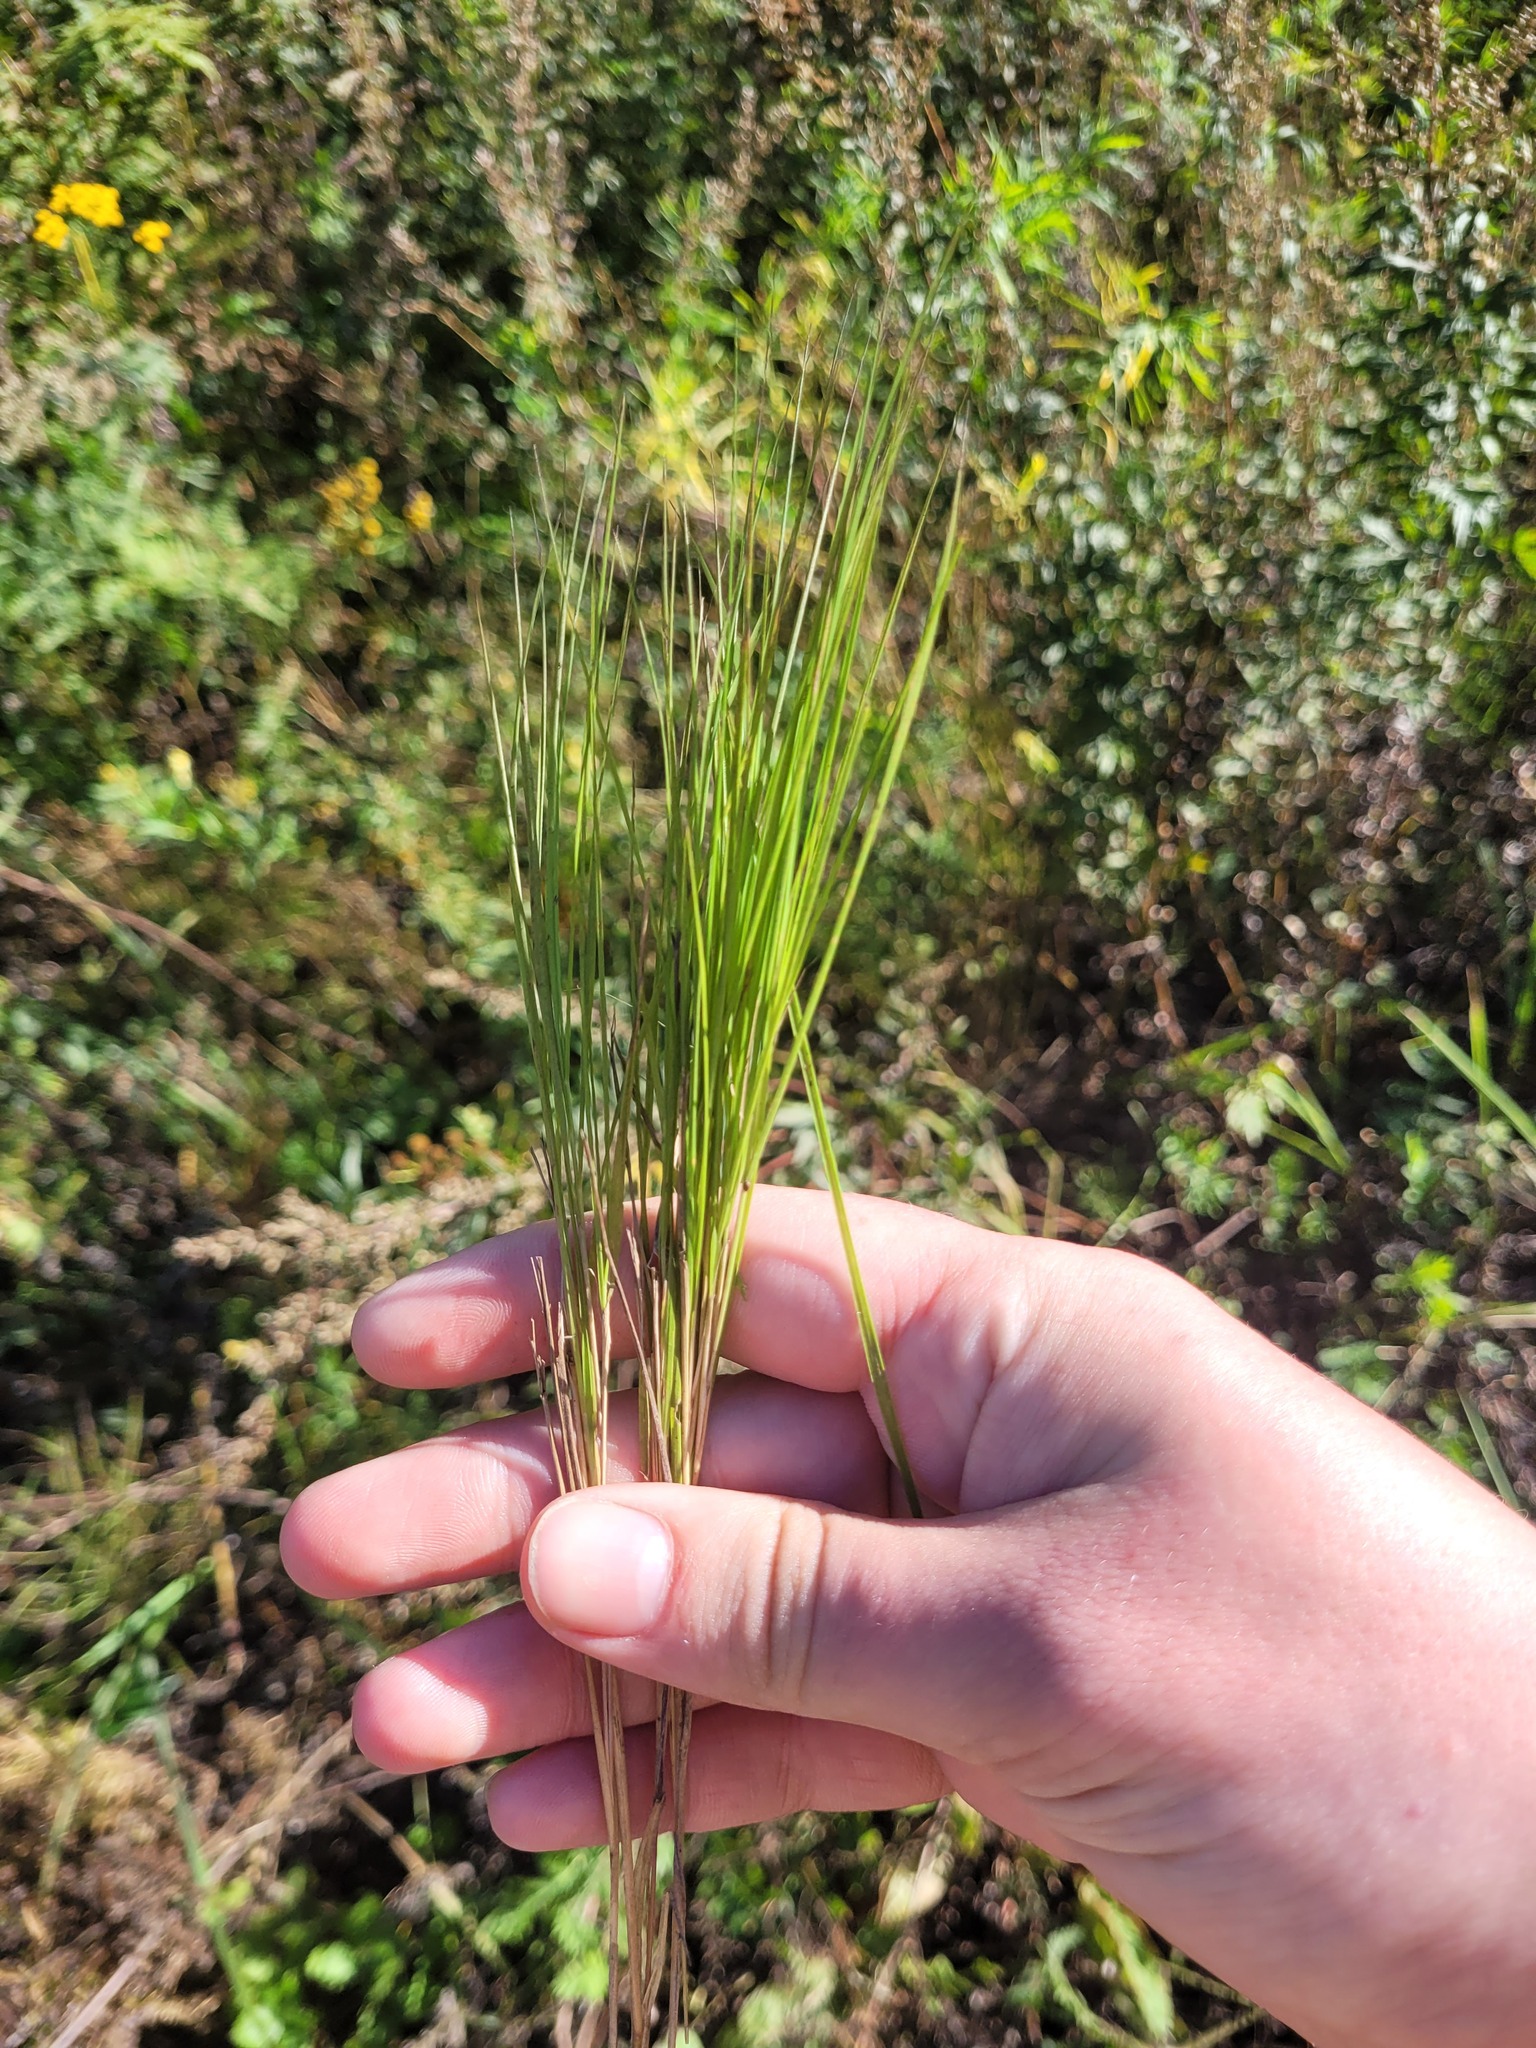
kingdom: Plantae
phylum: Tracheophyta
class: Liliopsida
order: Poales
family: Poaceae
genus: Melica
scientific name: Melica nutans
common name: Mountain melick
